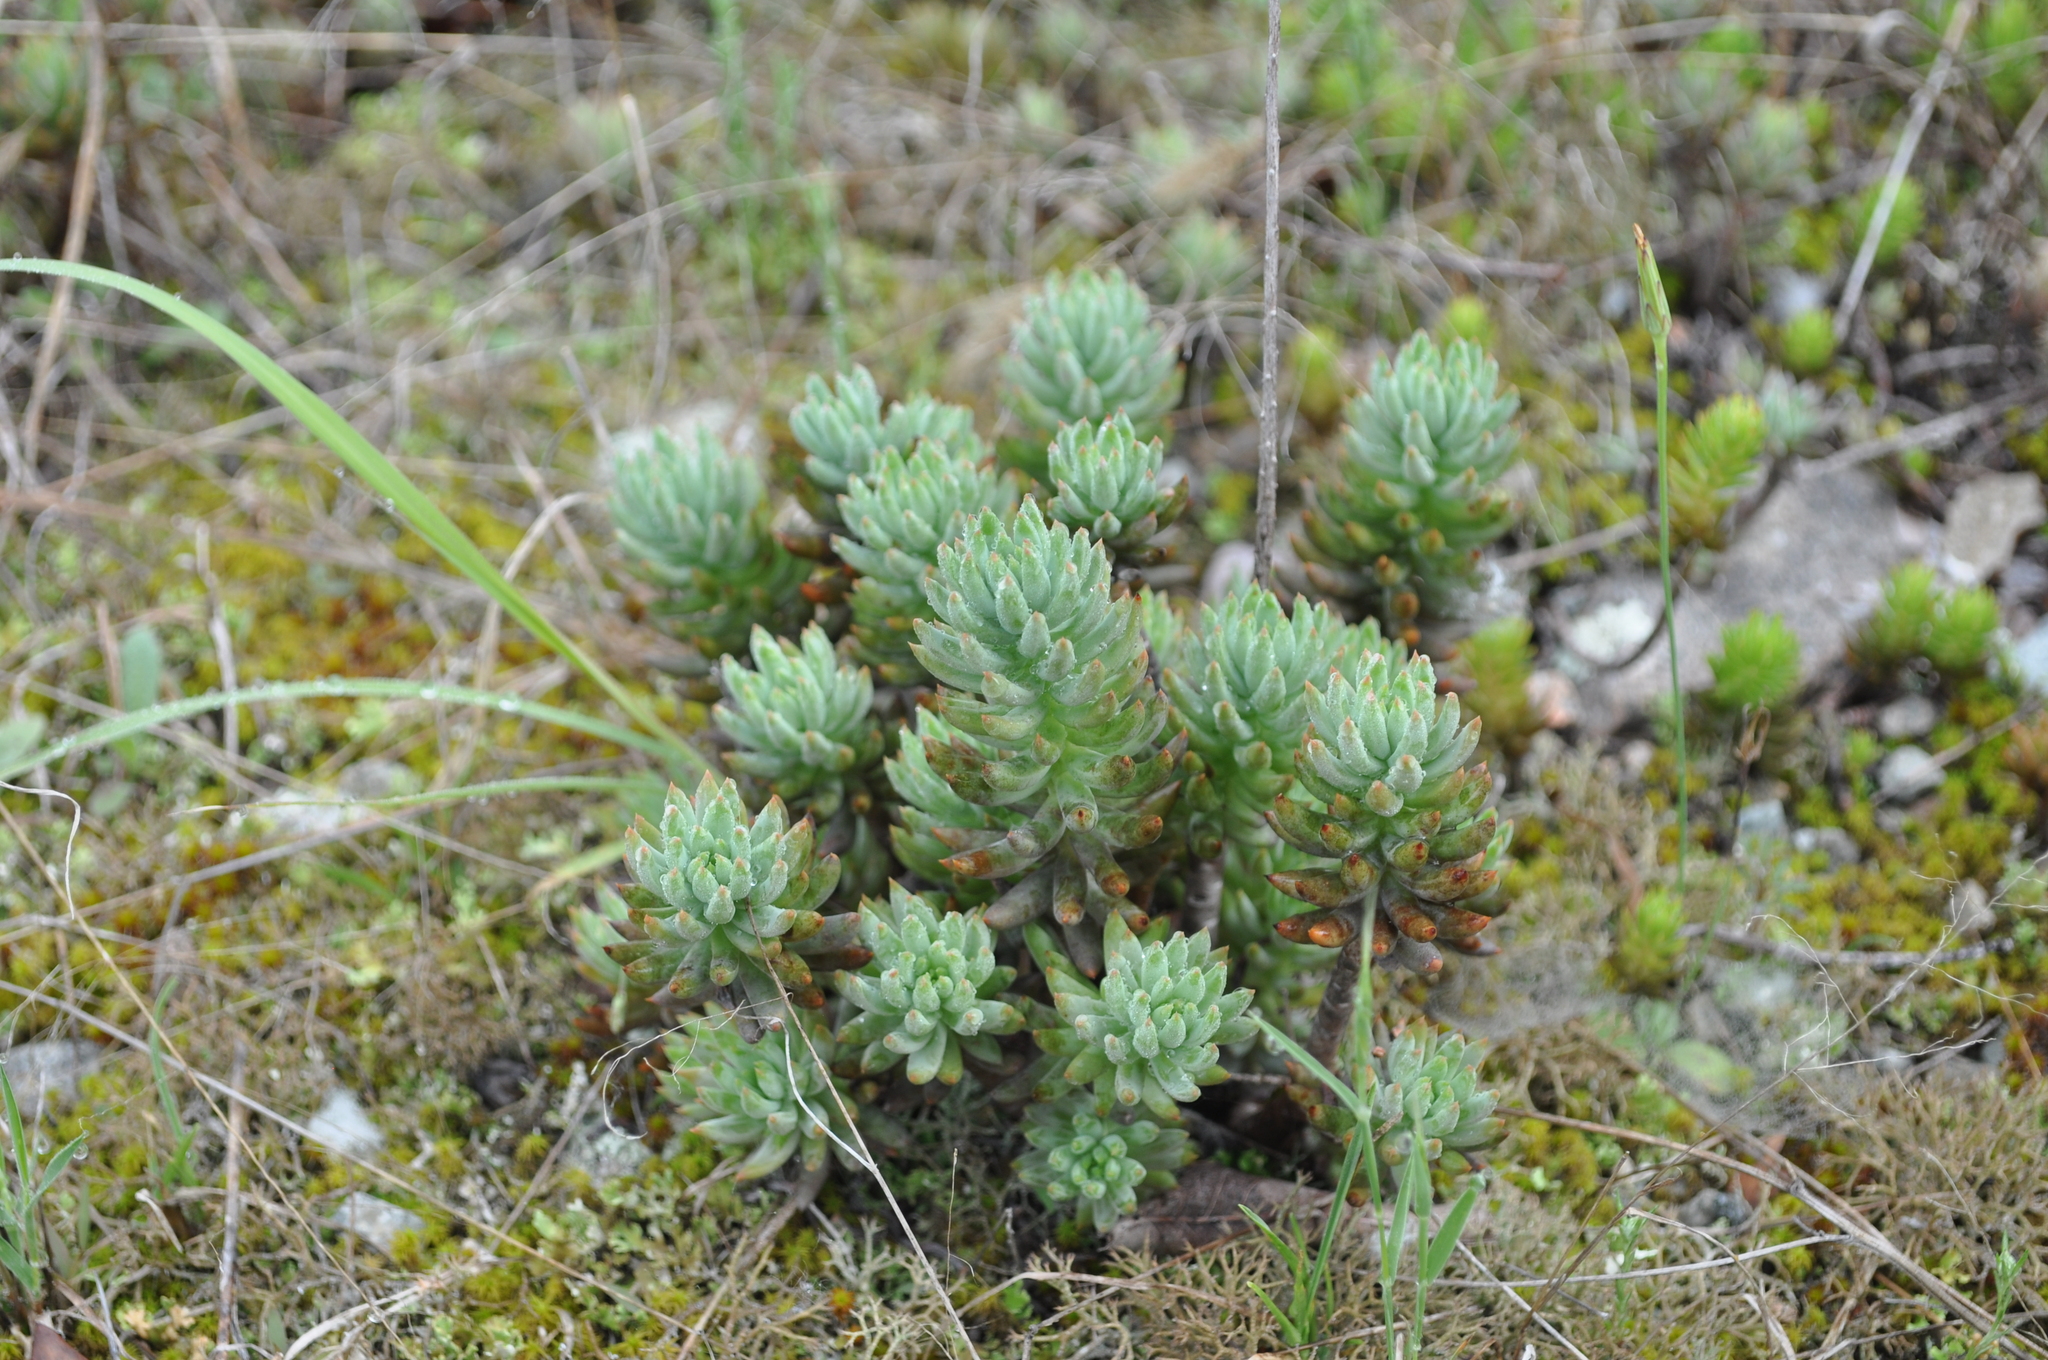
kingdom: Plantae
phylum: Tracheophyta
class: Magnoliopsida
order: Saxifragales
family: Crassulaceae
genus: Petrosedum
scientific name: Petrosedum sediforme
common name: Pale stonecrop
